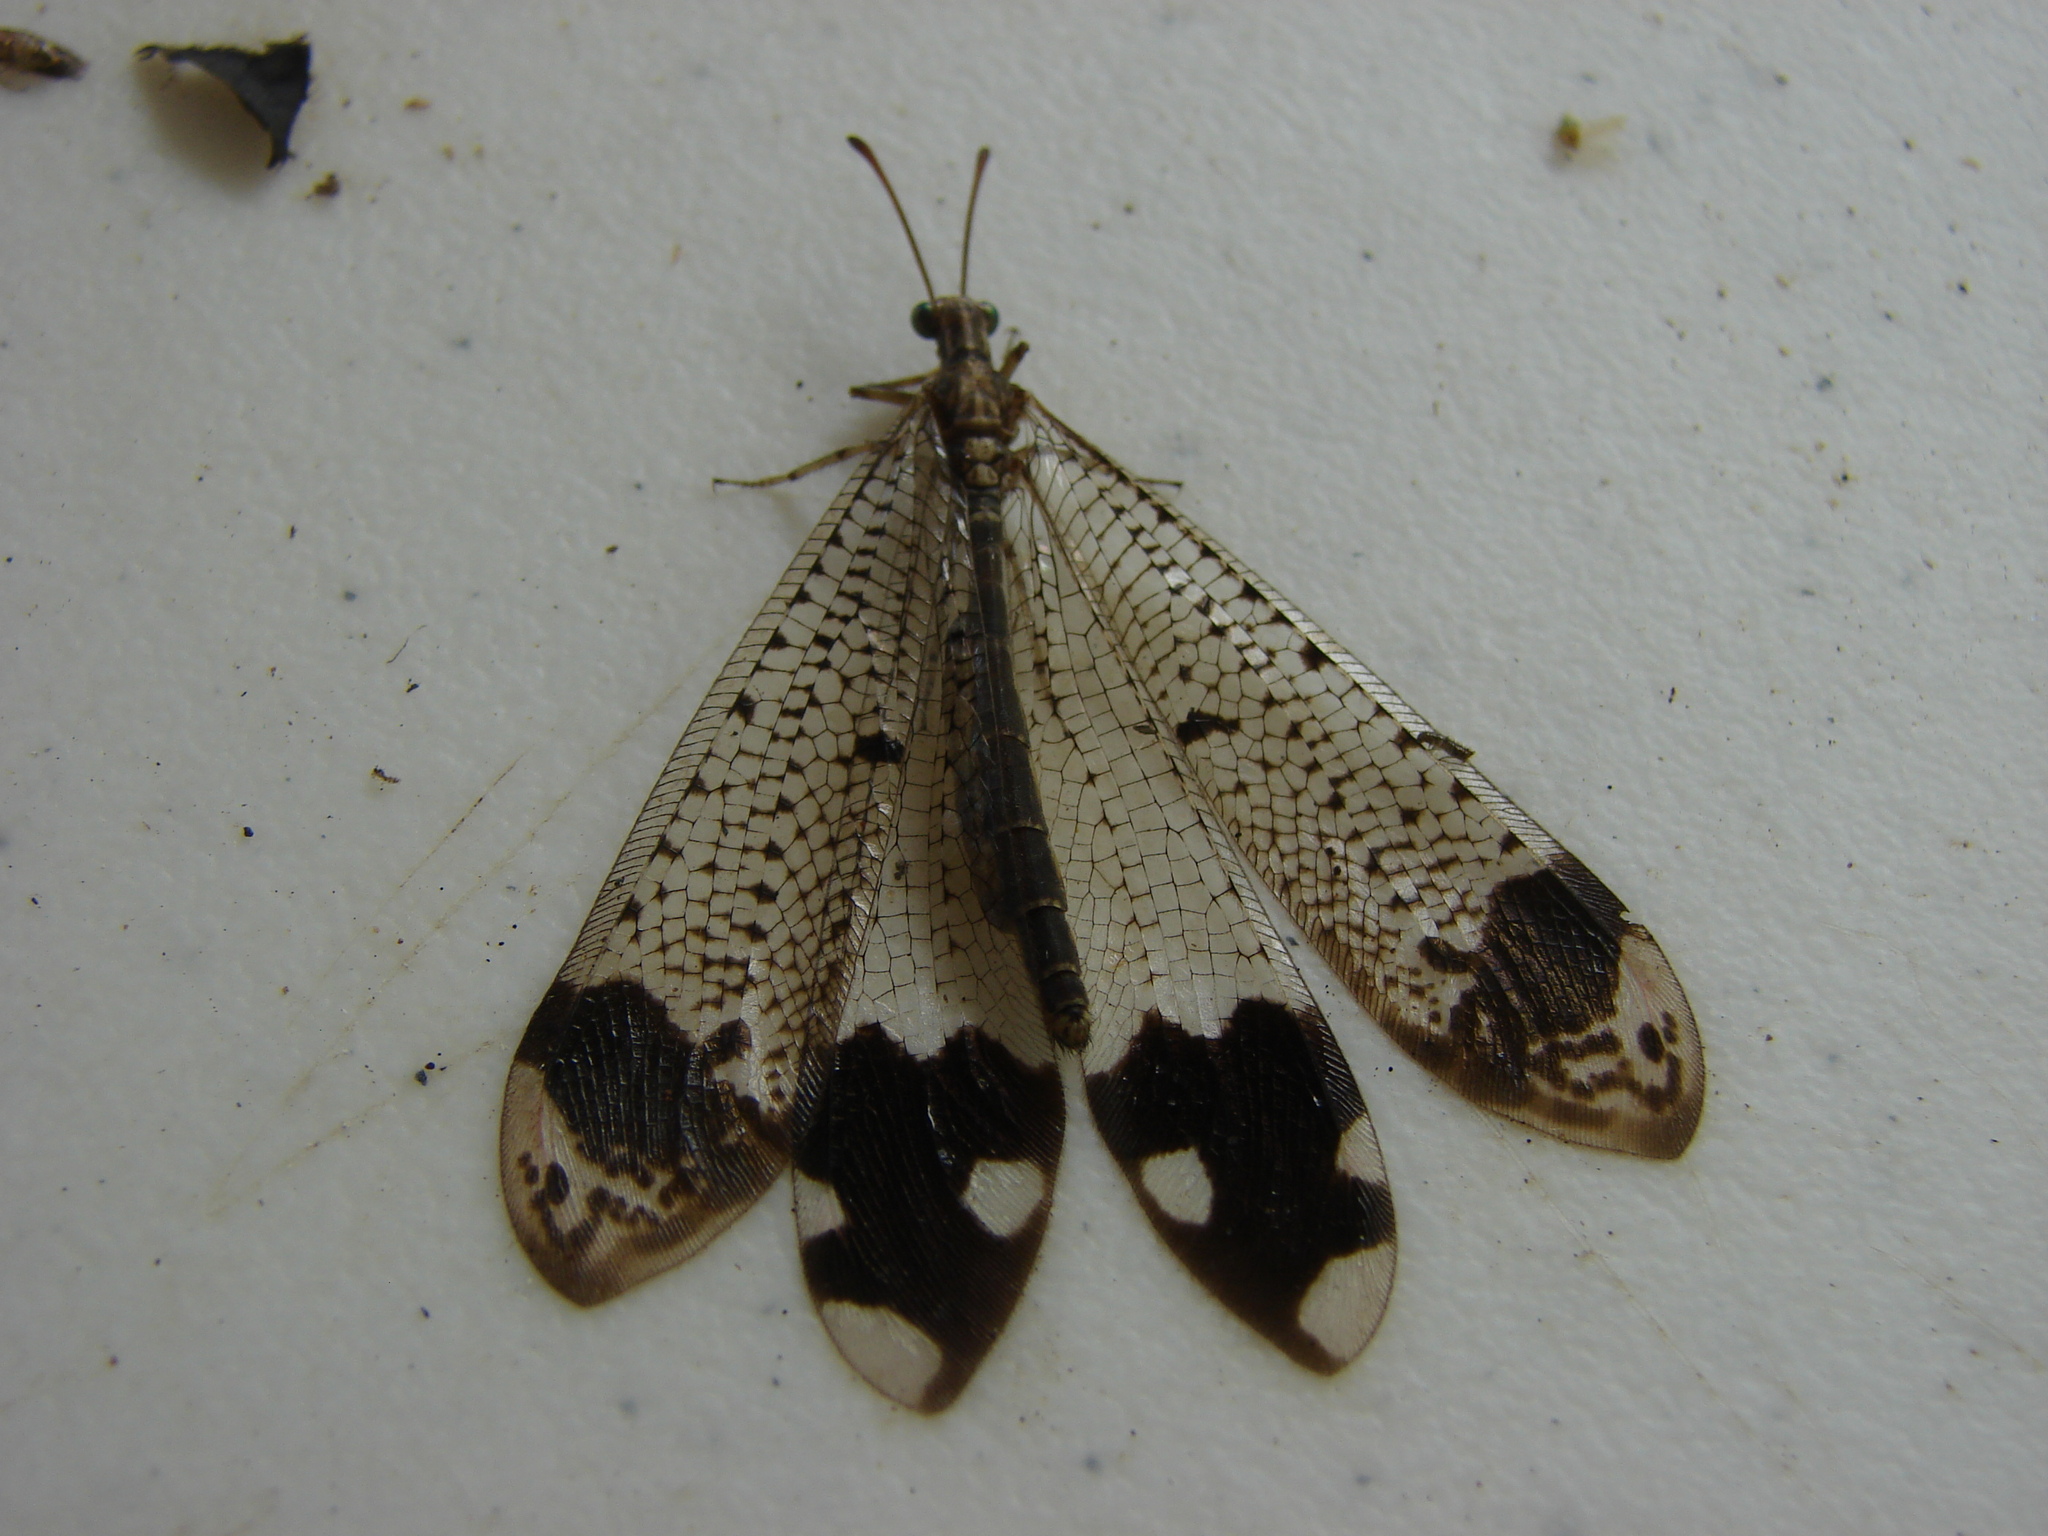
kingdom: Animalia
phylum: Arthropoda
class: Insecta
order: Neuroptera
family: Myrmeleontidae
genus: Glenurus
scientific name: Glenurus luniger
